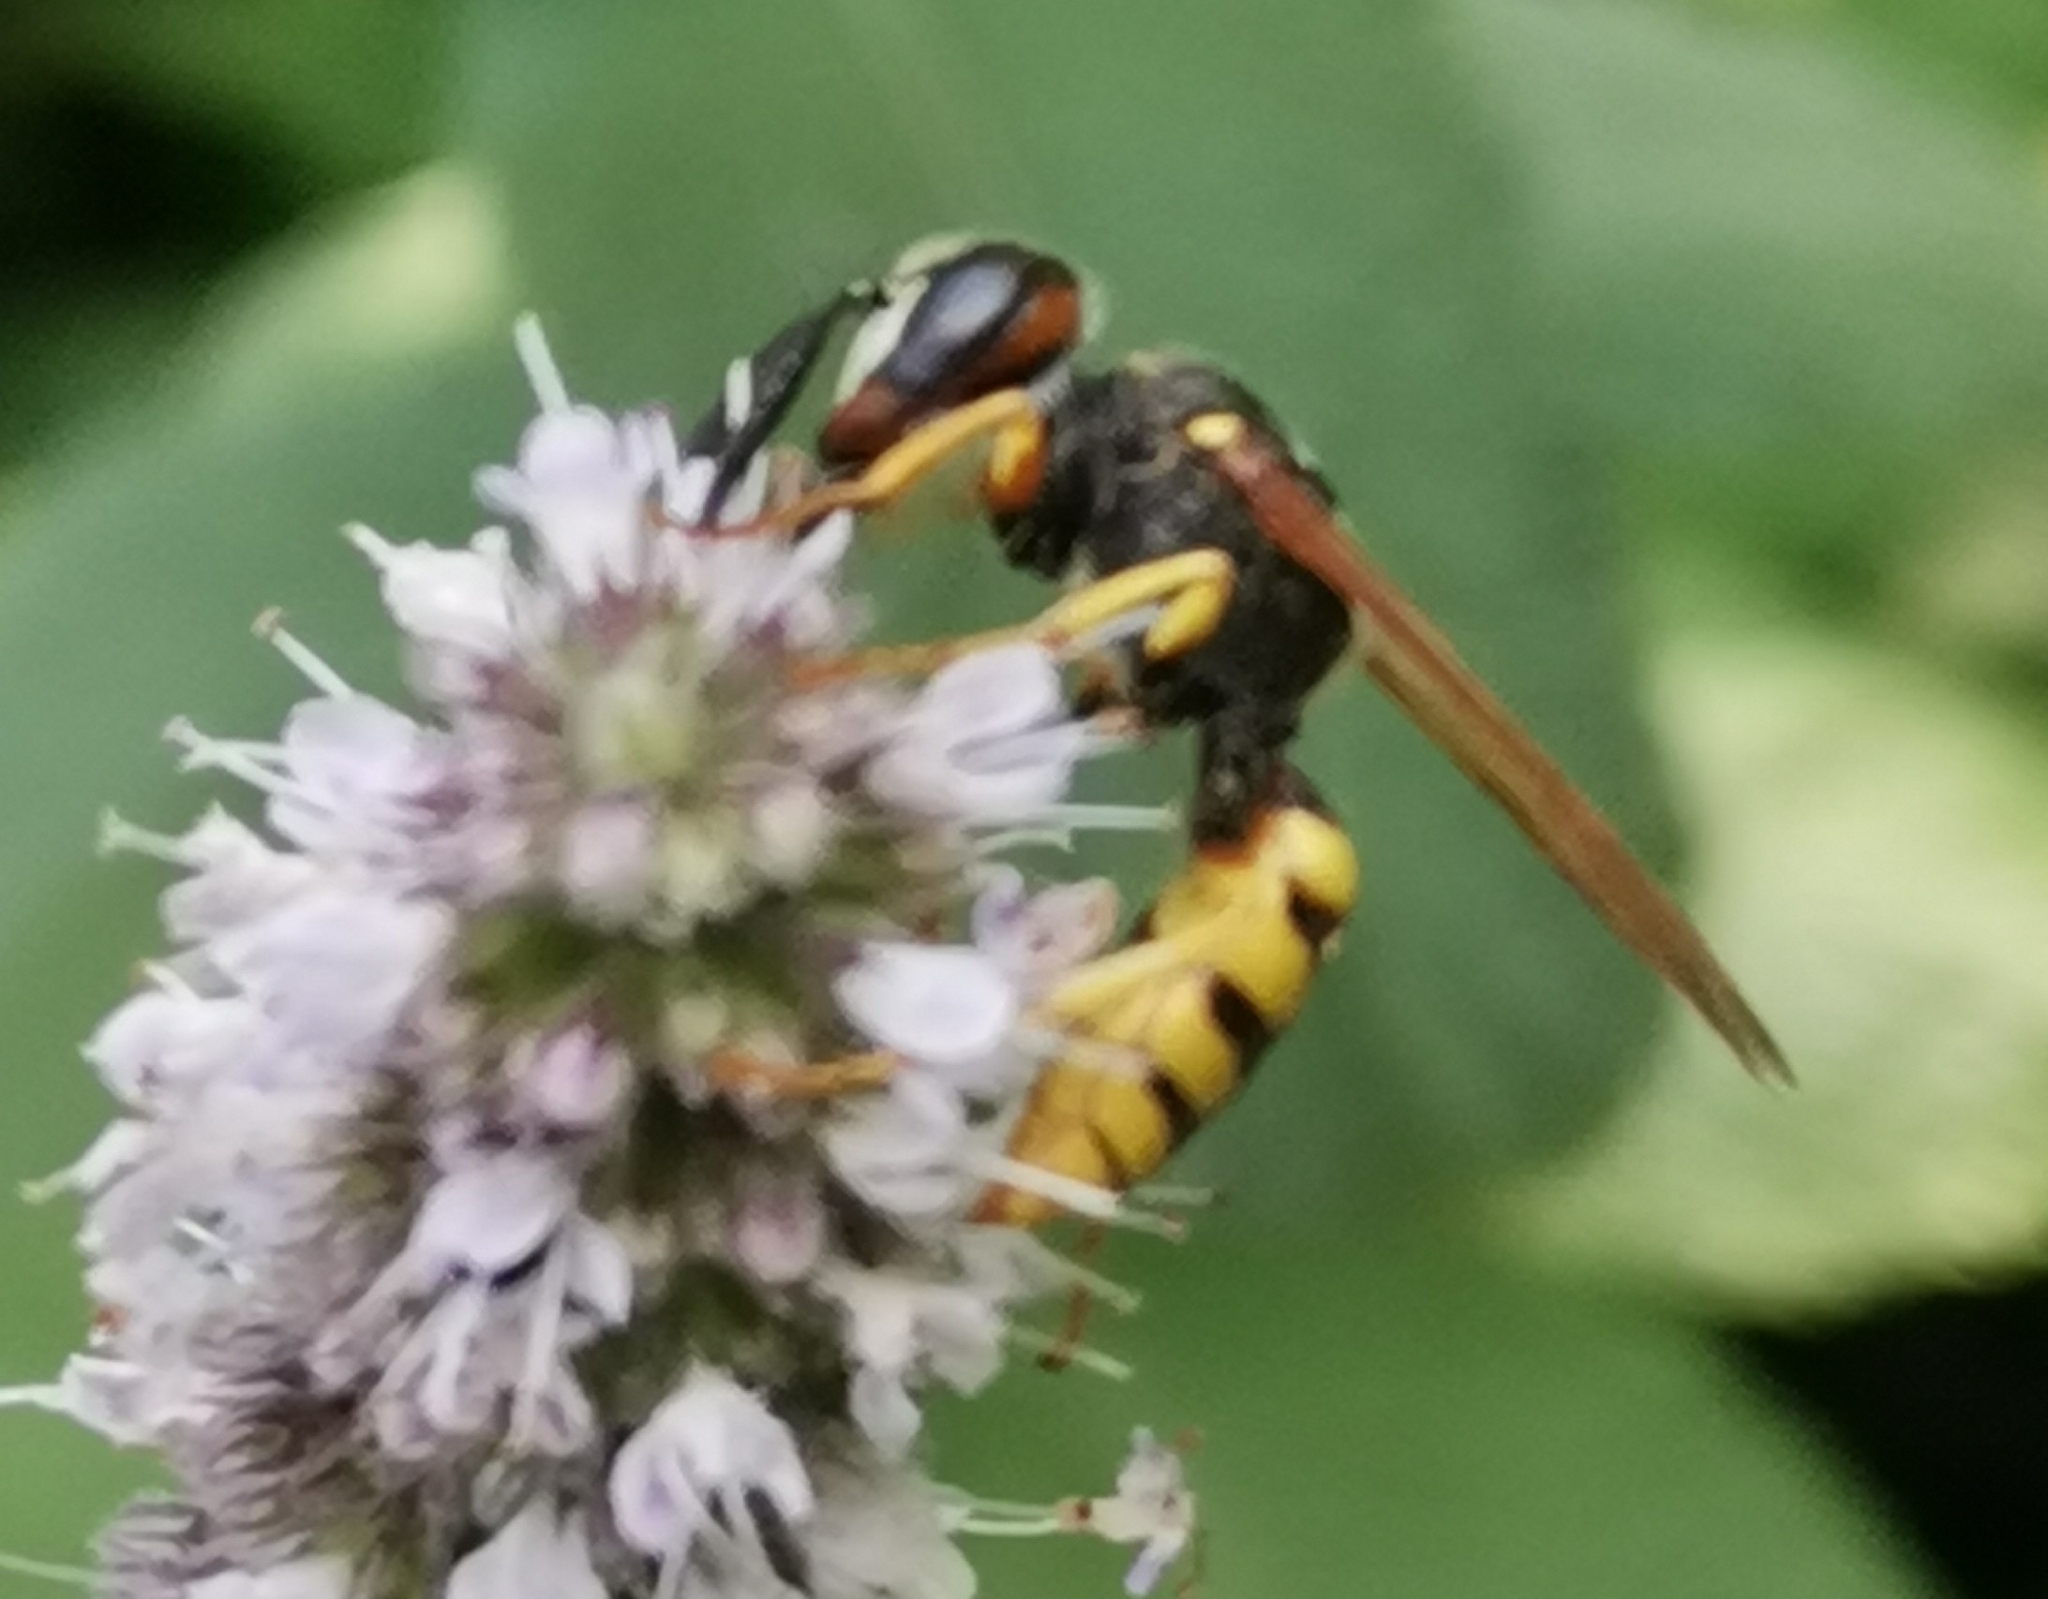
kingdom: Animalia
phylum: Arthropoda
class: Insecta
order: Hymenoptera
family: Crabronidae
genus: Philanthus
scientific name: Philanthus triangulum
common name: Bee wolf
